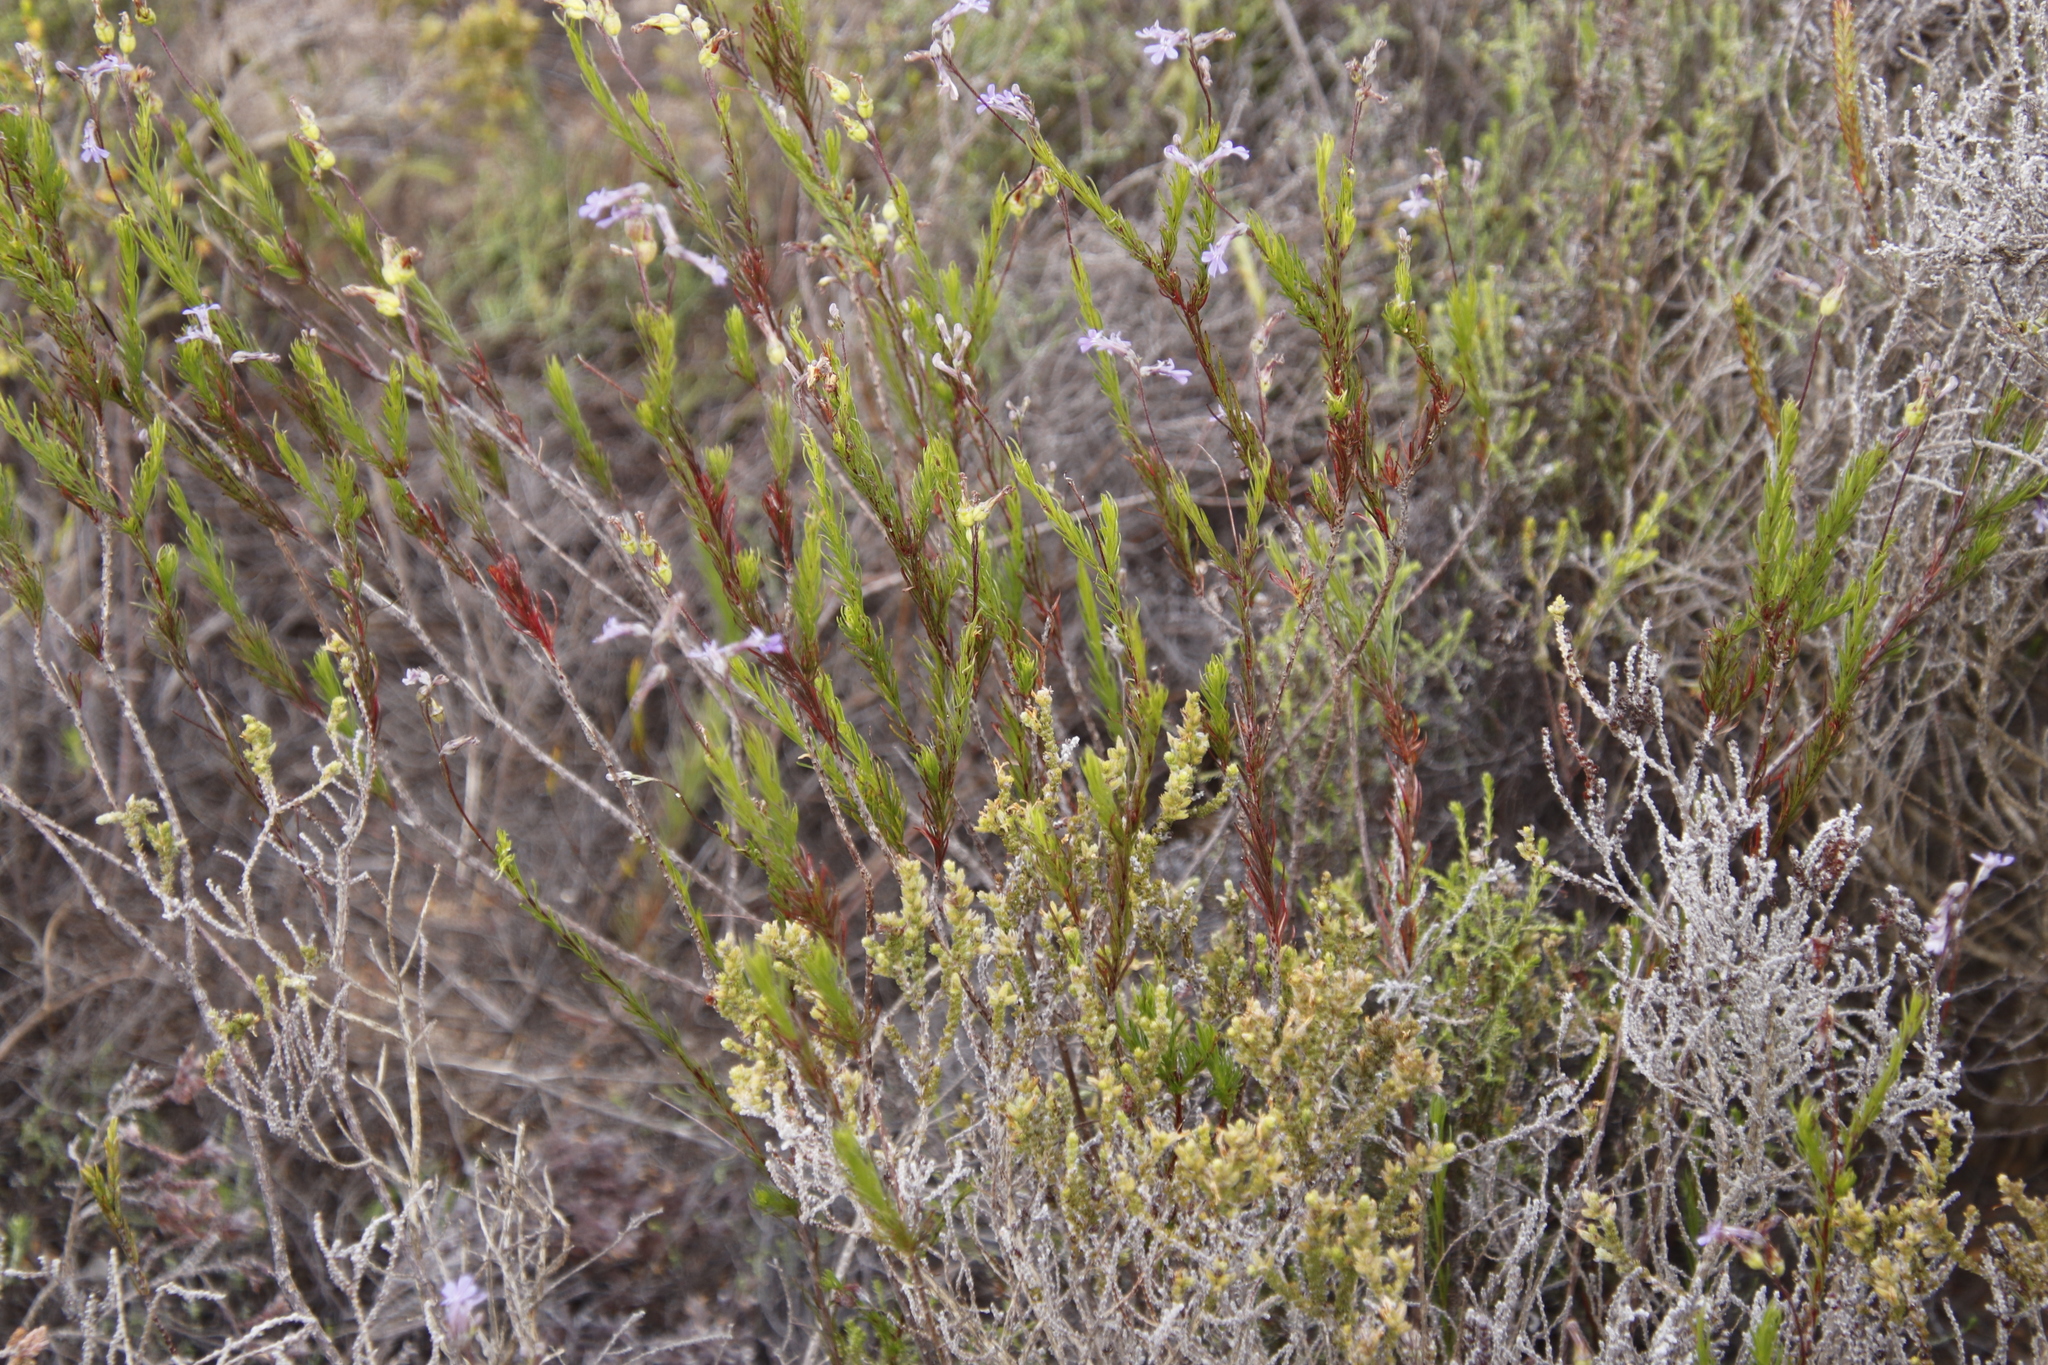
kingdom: Plantae
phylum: Tracheophyta
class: Magnoliopsida
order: Asterales
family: Campanulaceae
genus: Lobelia
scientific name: Lobelia pinifolia
